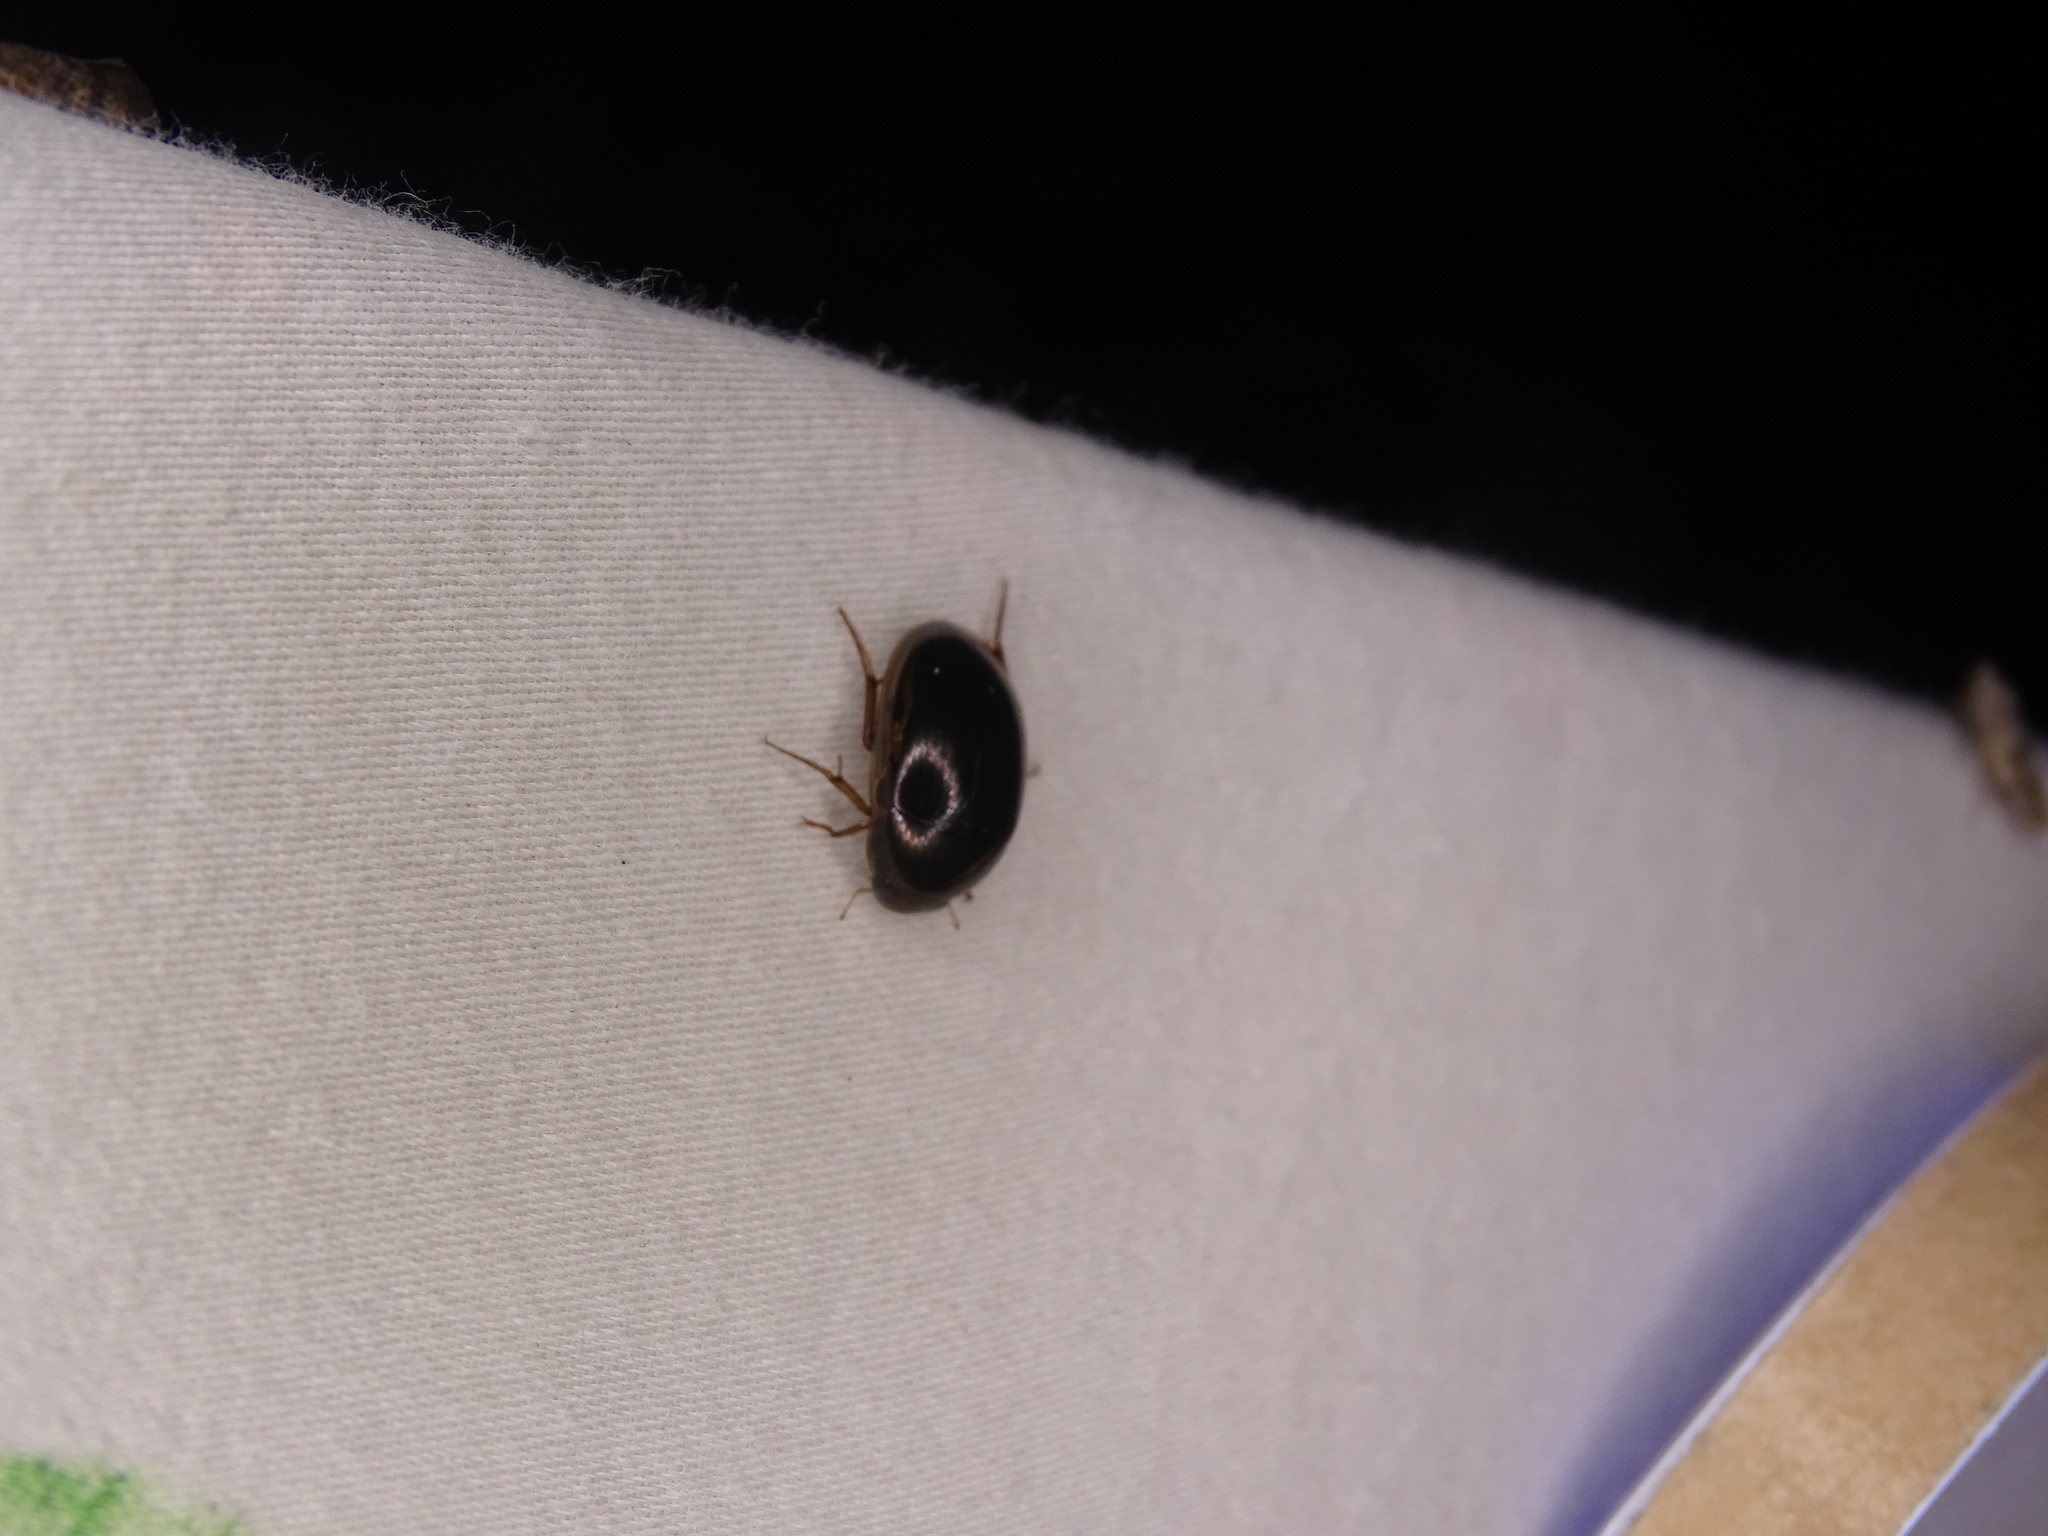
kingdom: Animalia
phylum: Arthropoda
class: Insecta
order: Coleoptera
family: Hydrophilidae
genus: Tropisternus
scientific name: Tropisternus collaris
